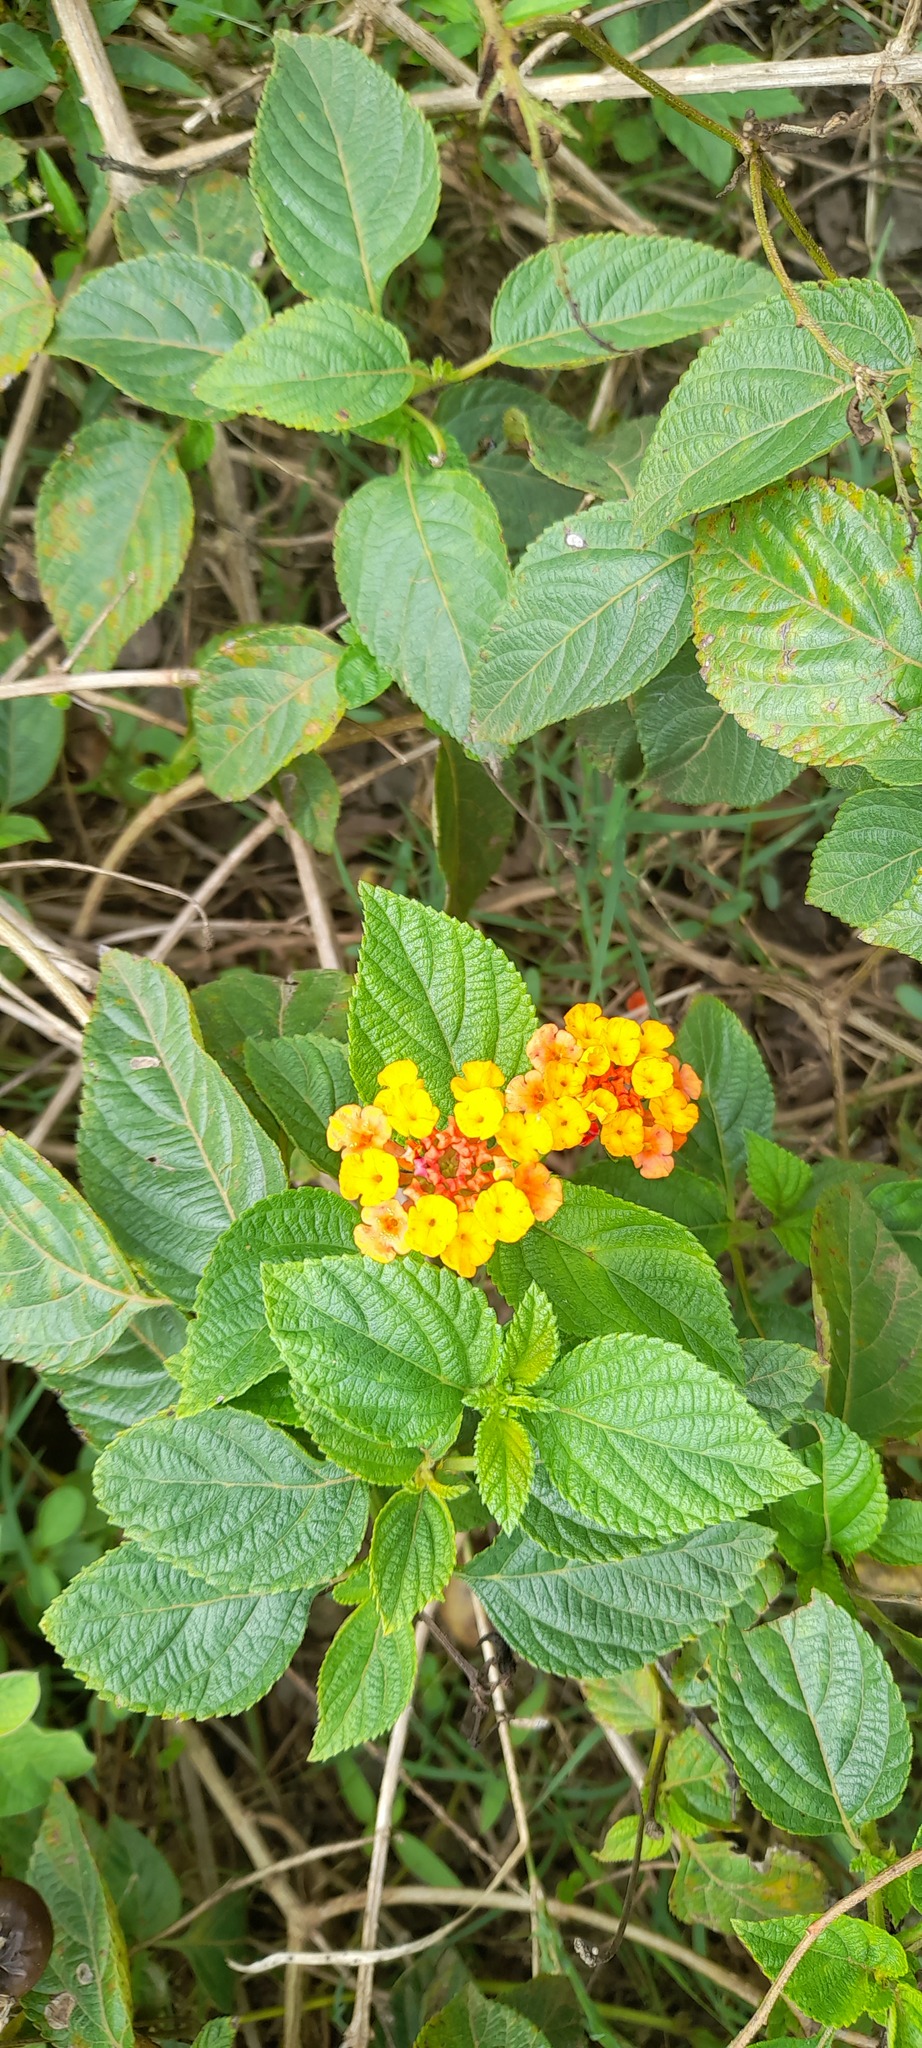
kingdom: Plantae
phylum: Tracheophyta
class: Magnoliopsida
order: Lamiales
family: Verbenaceae
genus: Lantana
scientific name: Lantana camara
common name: Lantana
